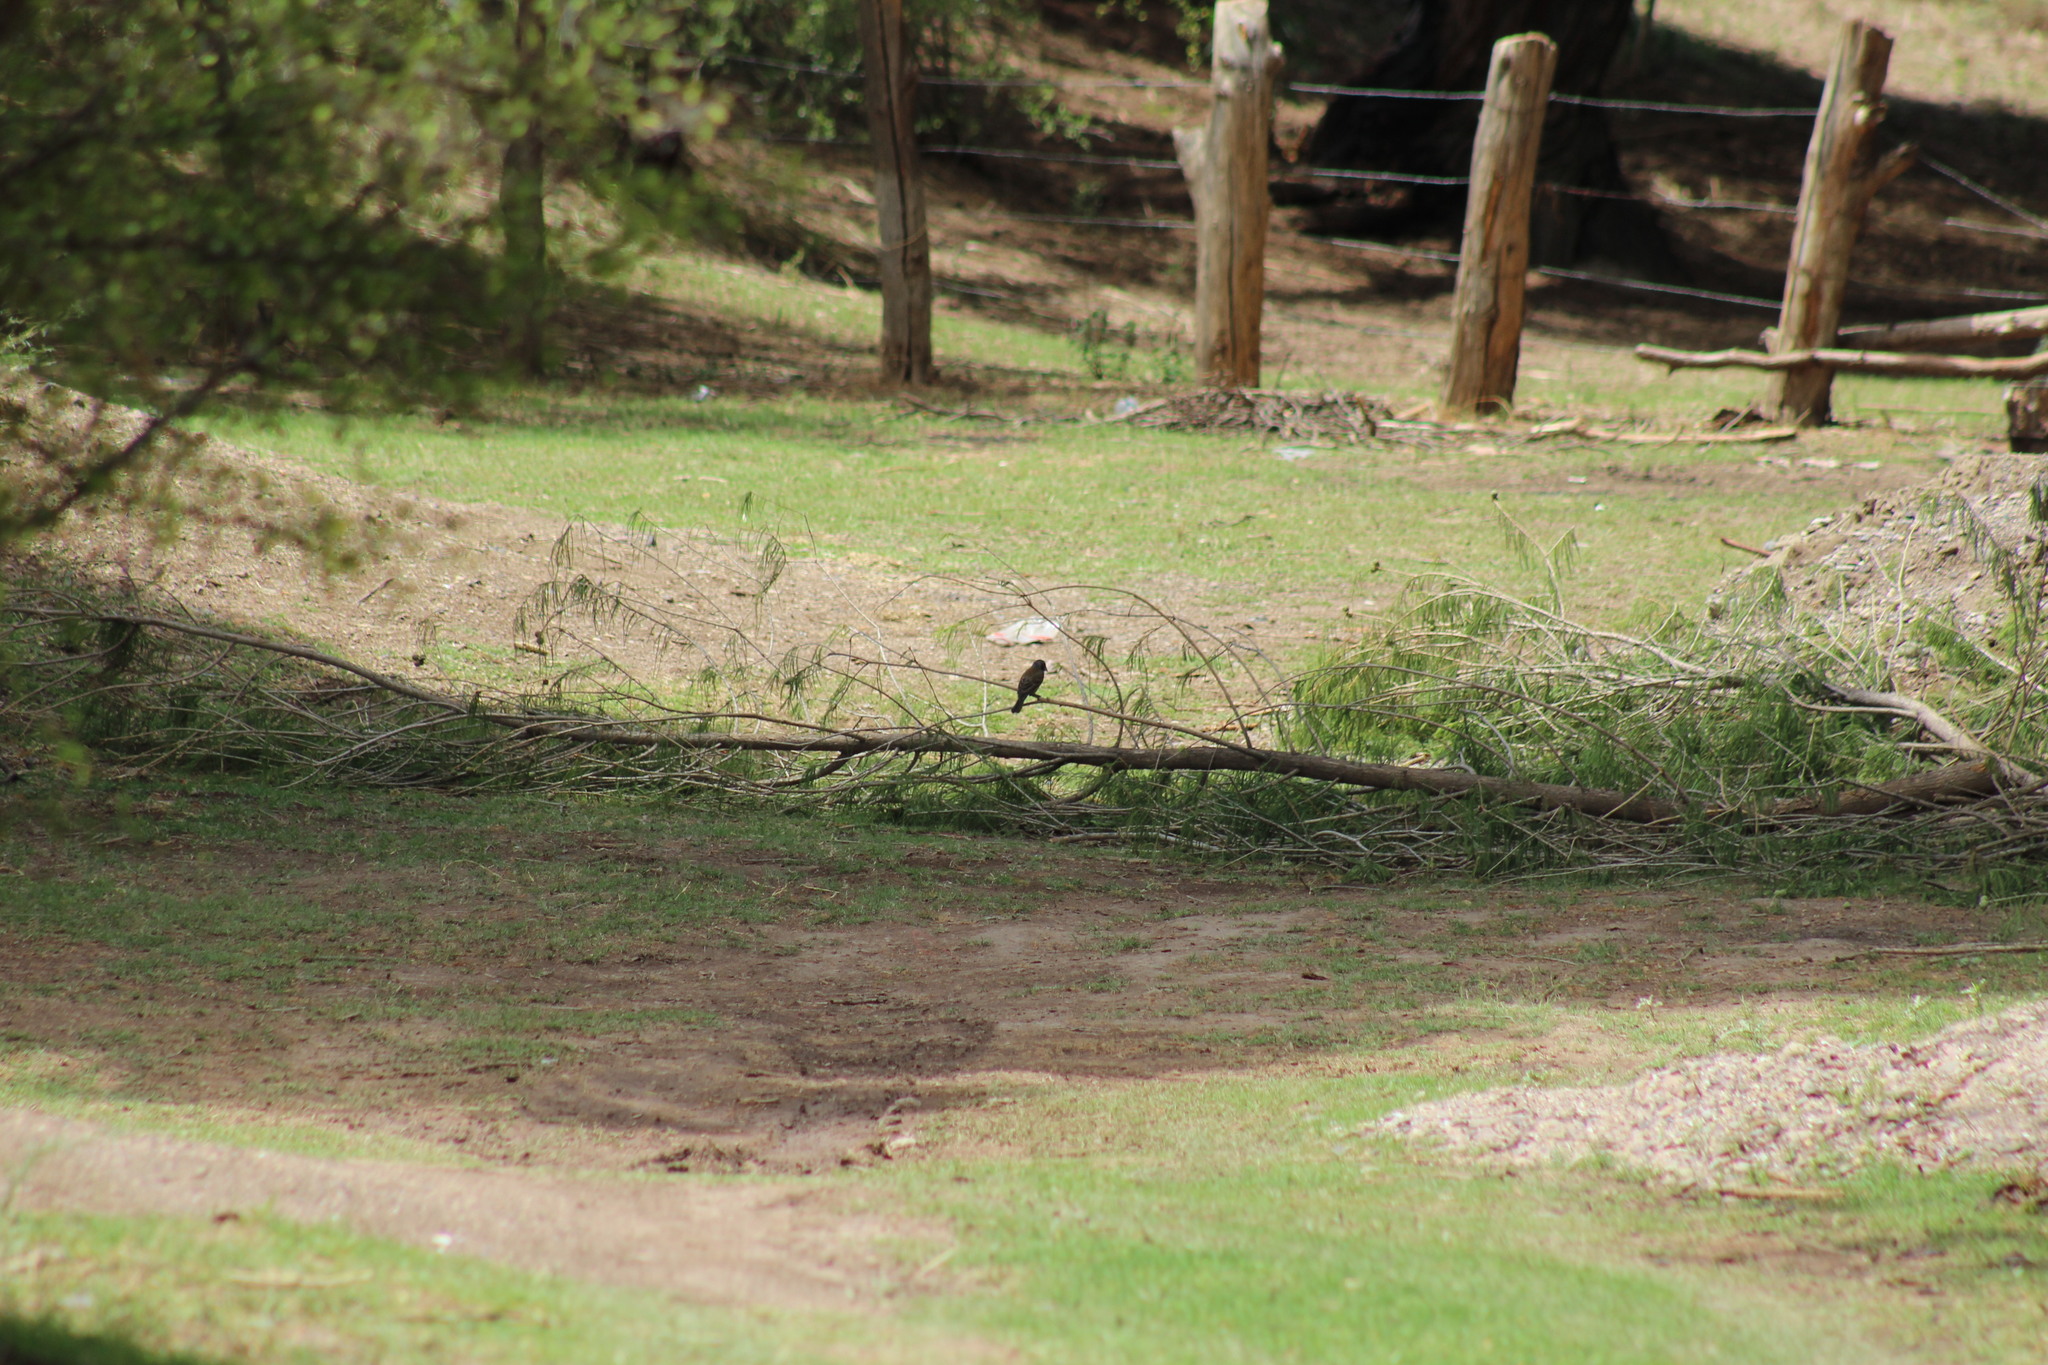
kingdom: Animalia
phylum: Chordata
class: Aves
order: Passeriformes
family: Cardinalidae
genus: Passerina
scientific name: Passerina versicolor
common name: Varied bunting
